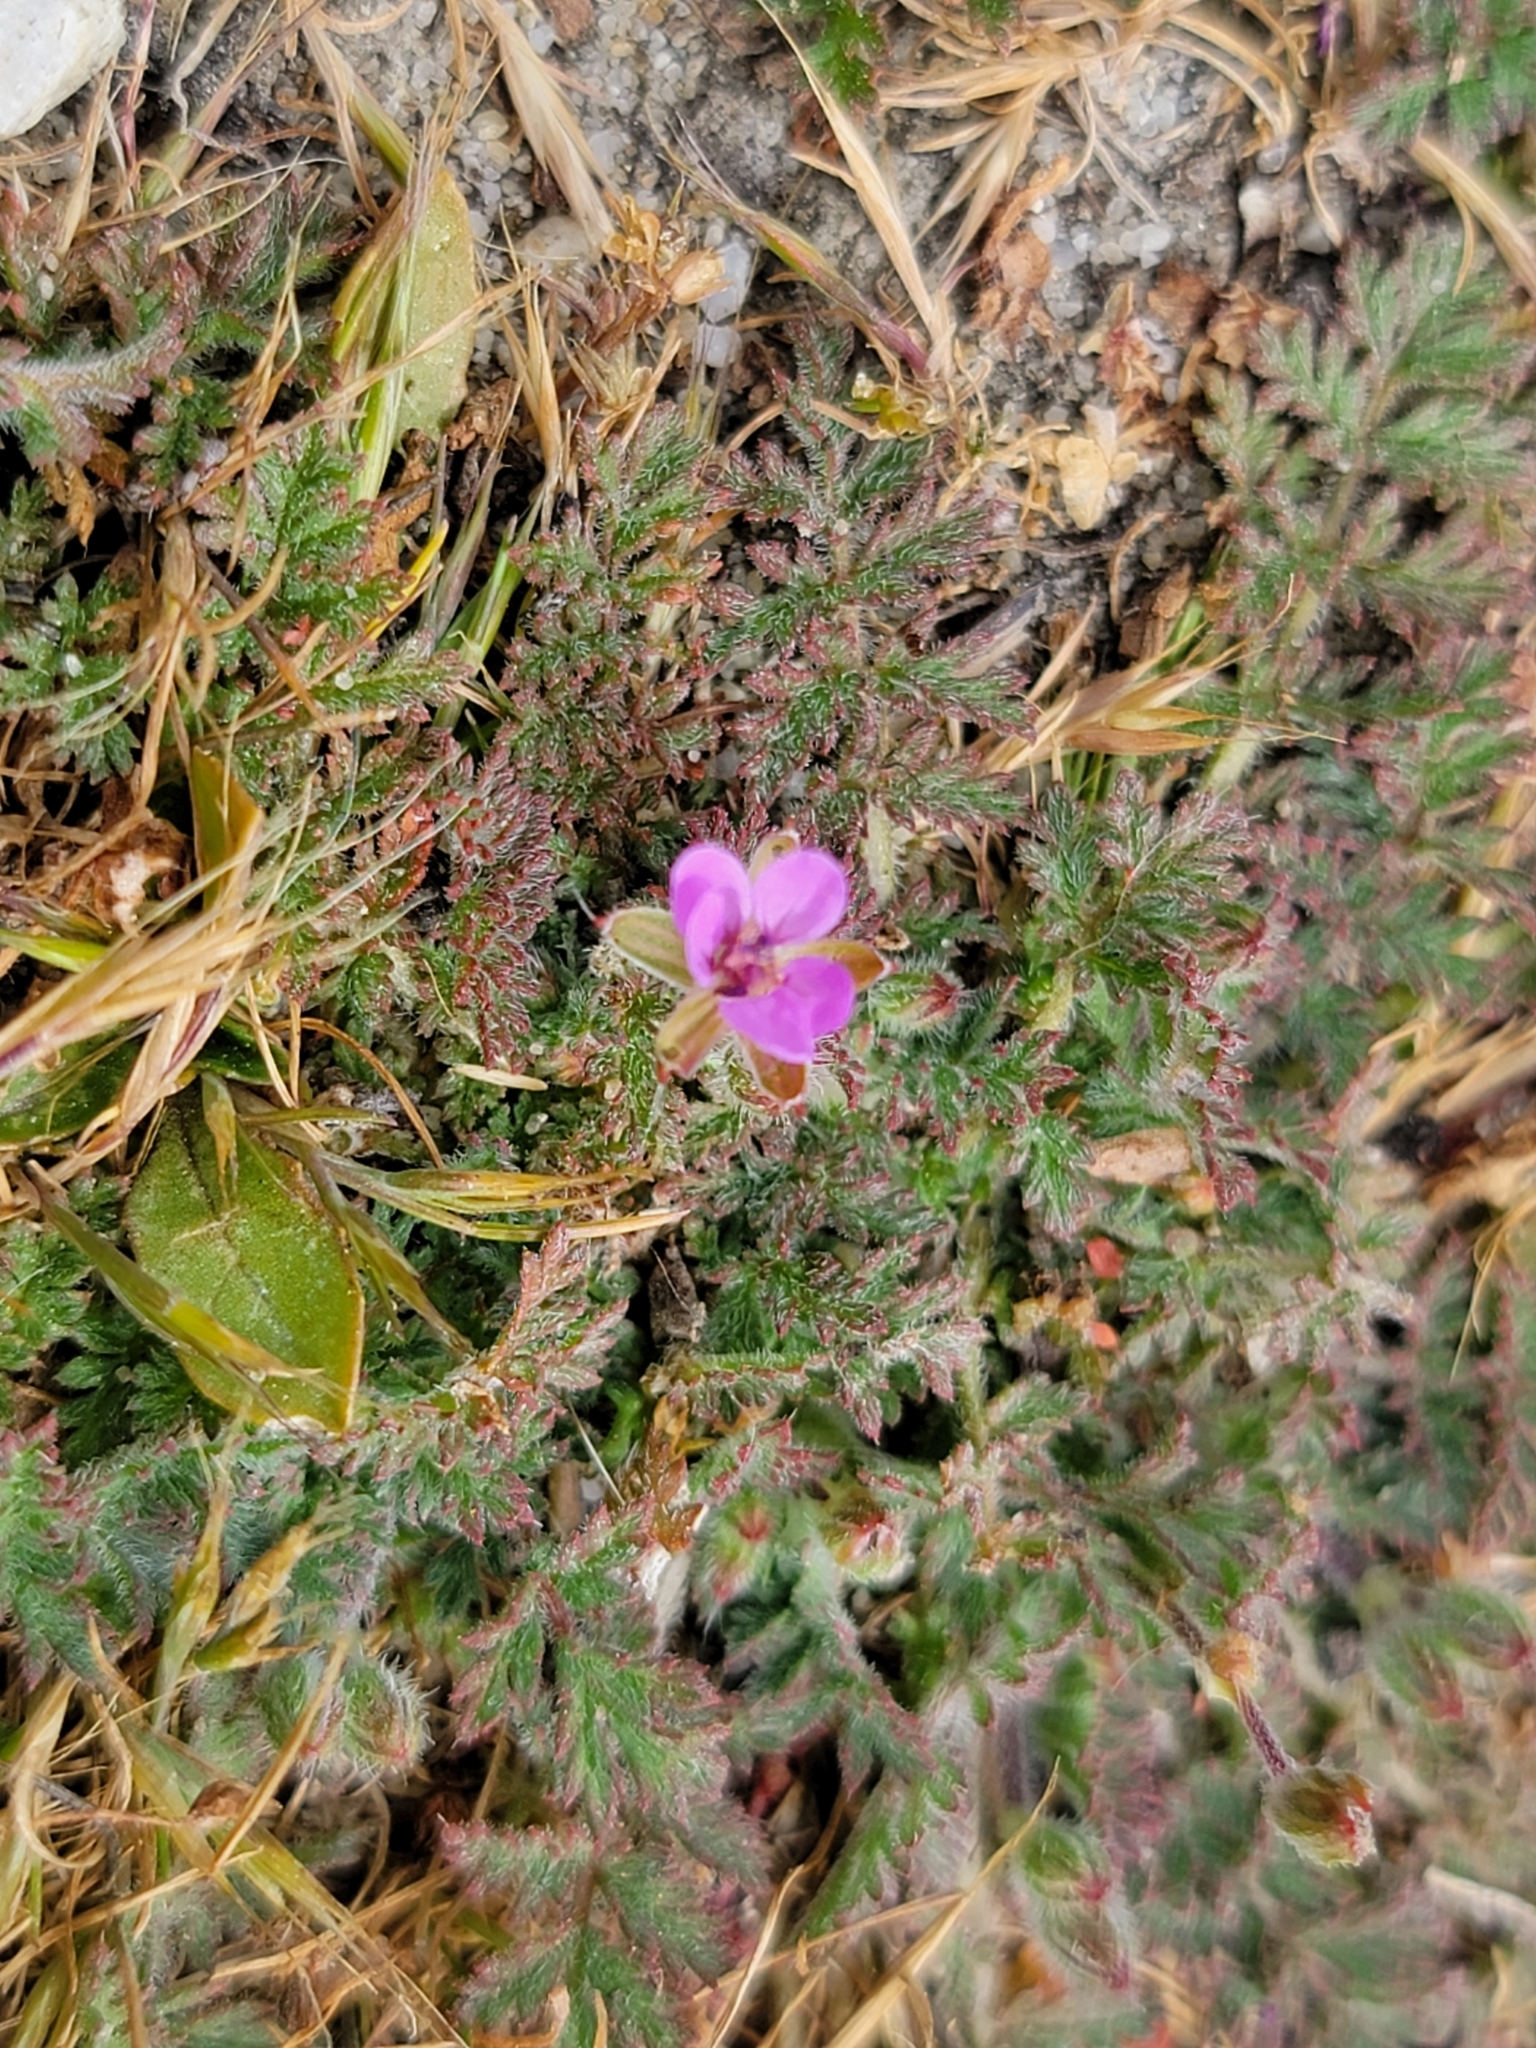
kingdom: Plantae
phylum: Tracheophyta
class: Magnoliopsida
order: Geraniales
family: Geraniaceae
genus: Erodium
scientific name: Erodium cicutarium
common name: Common stork's-bill
